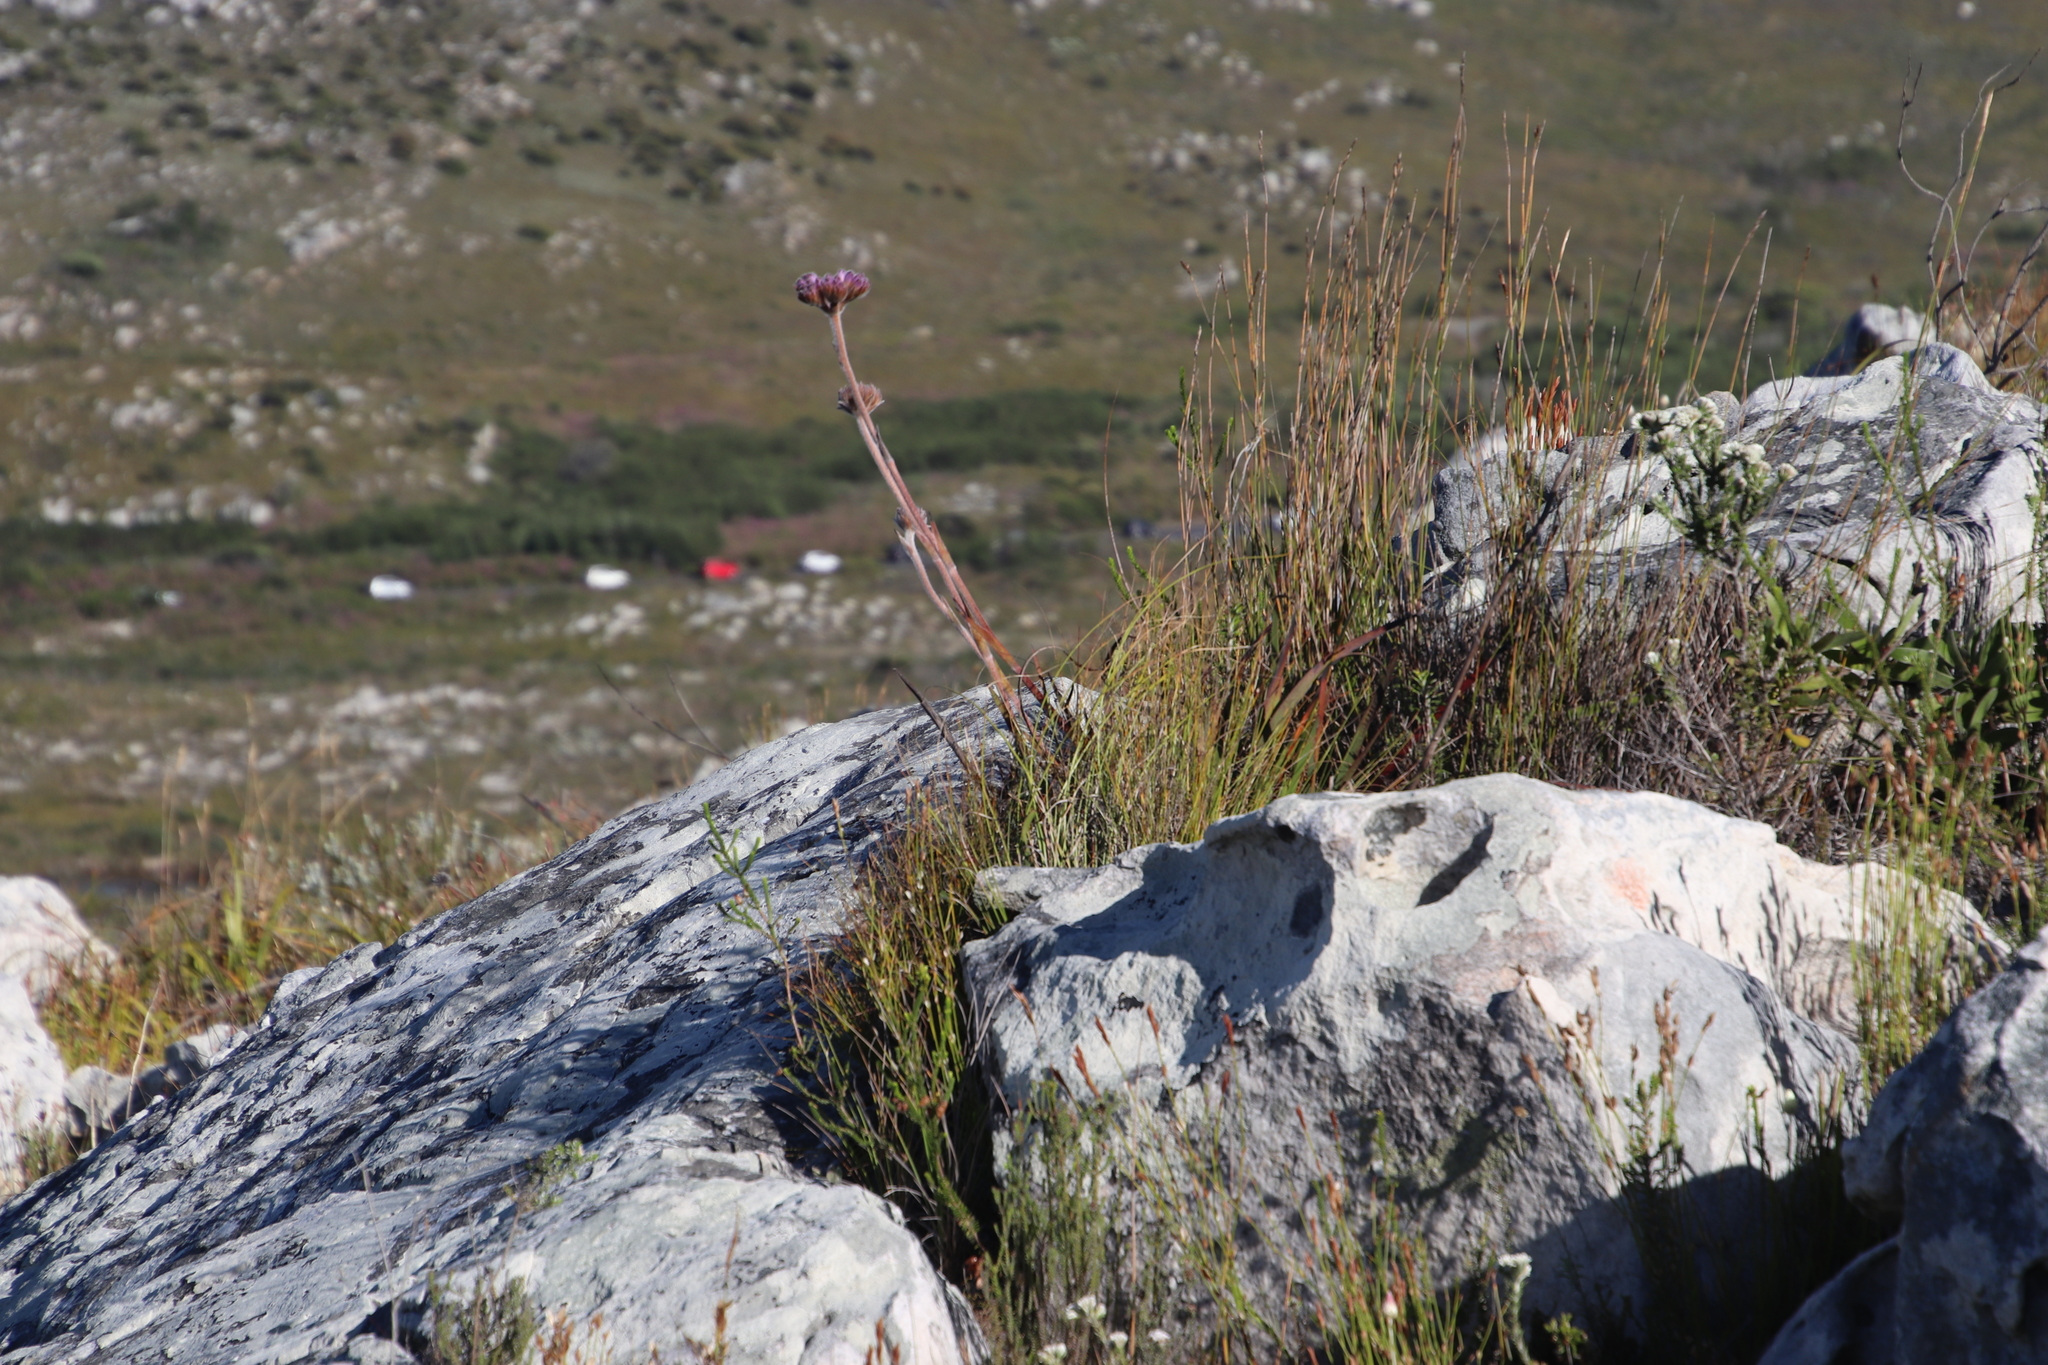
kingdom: Plantae
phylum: Tracheophyta
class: Liliopsida
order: Commelinales
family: Haemodoraceae
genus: Dilatris
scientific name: Dilatris pillansii
